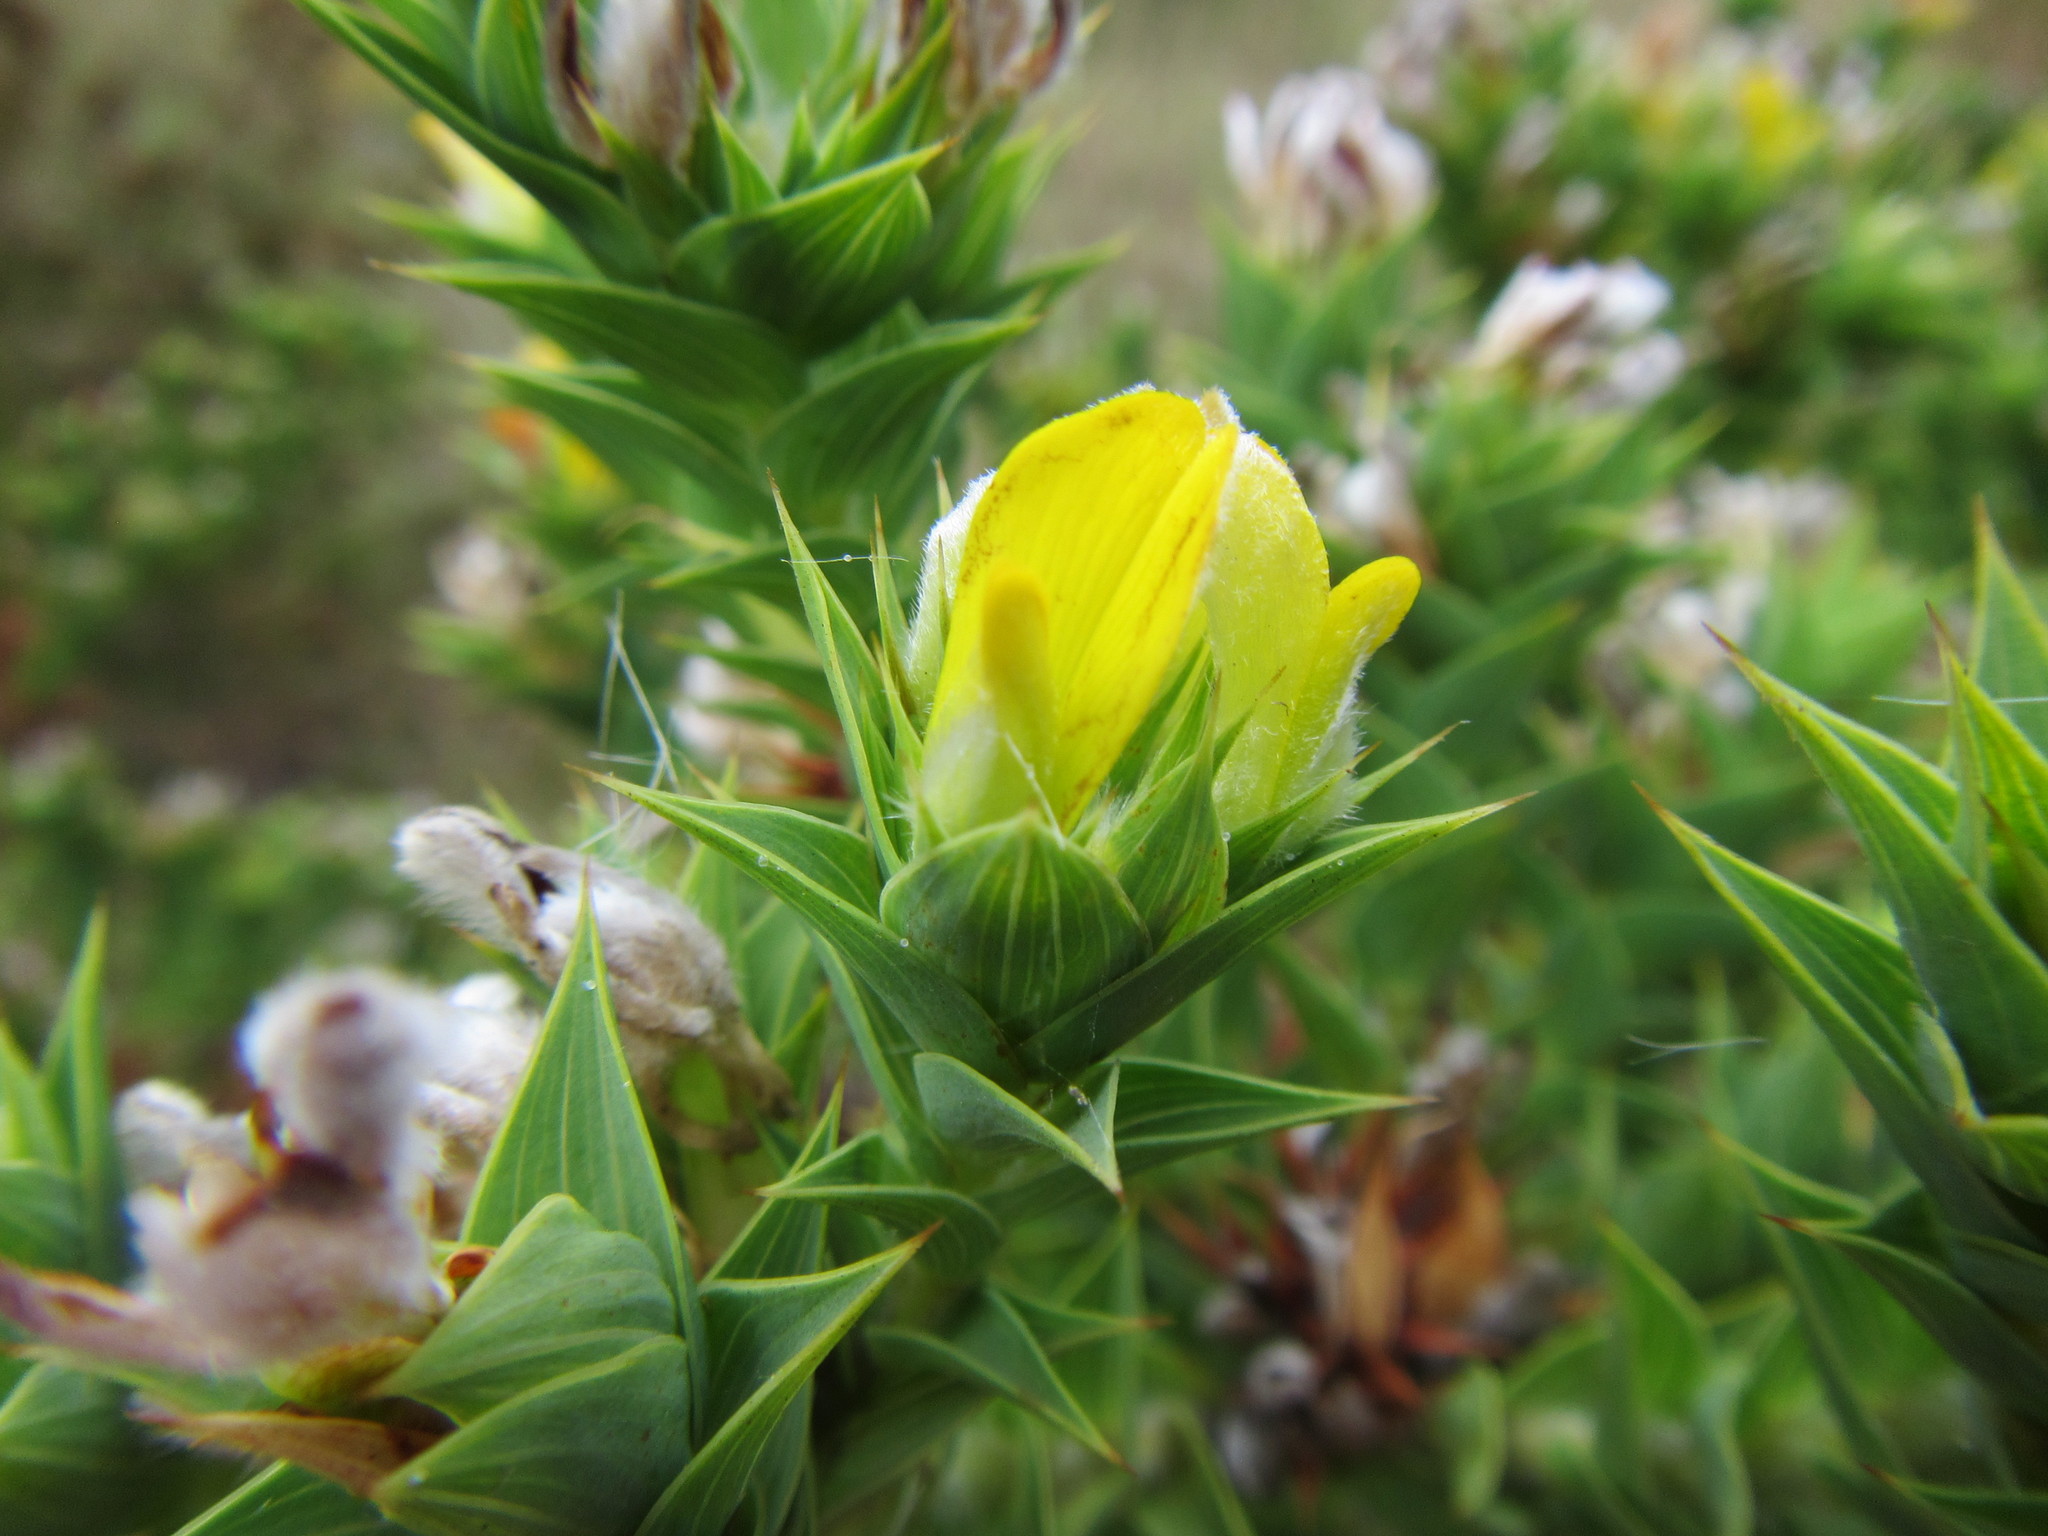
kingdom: Plantae
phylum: Tracheophyta
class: Magnoliopsida
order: Fabales
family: Fabaceae
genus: Aspalathus
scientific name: Aspalathus cordata
